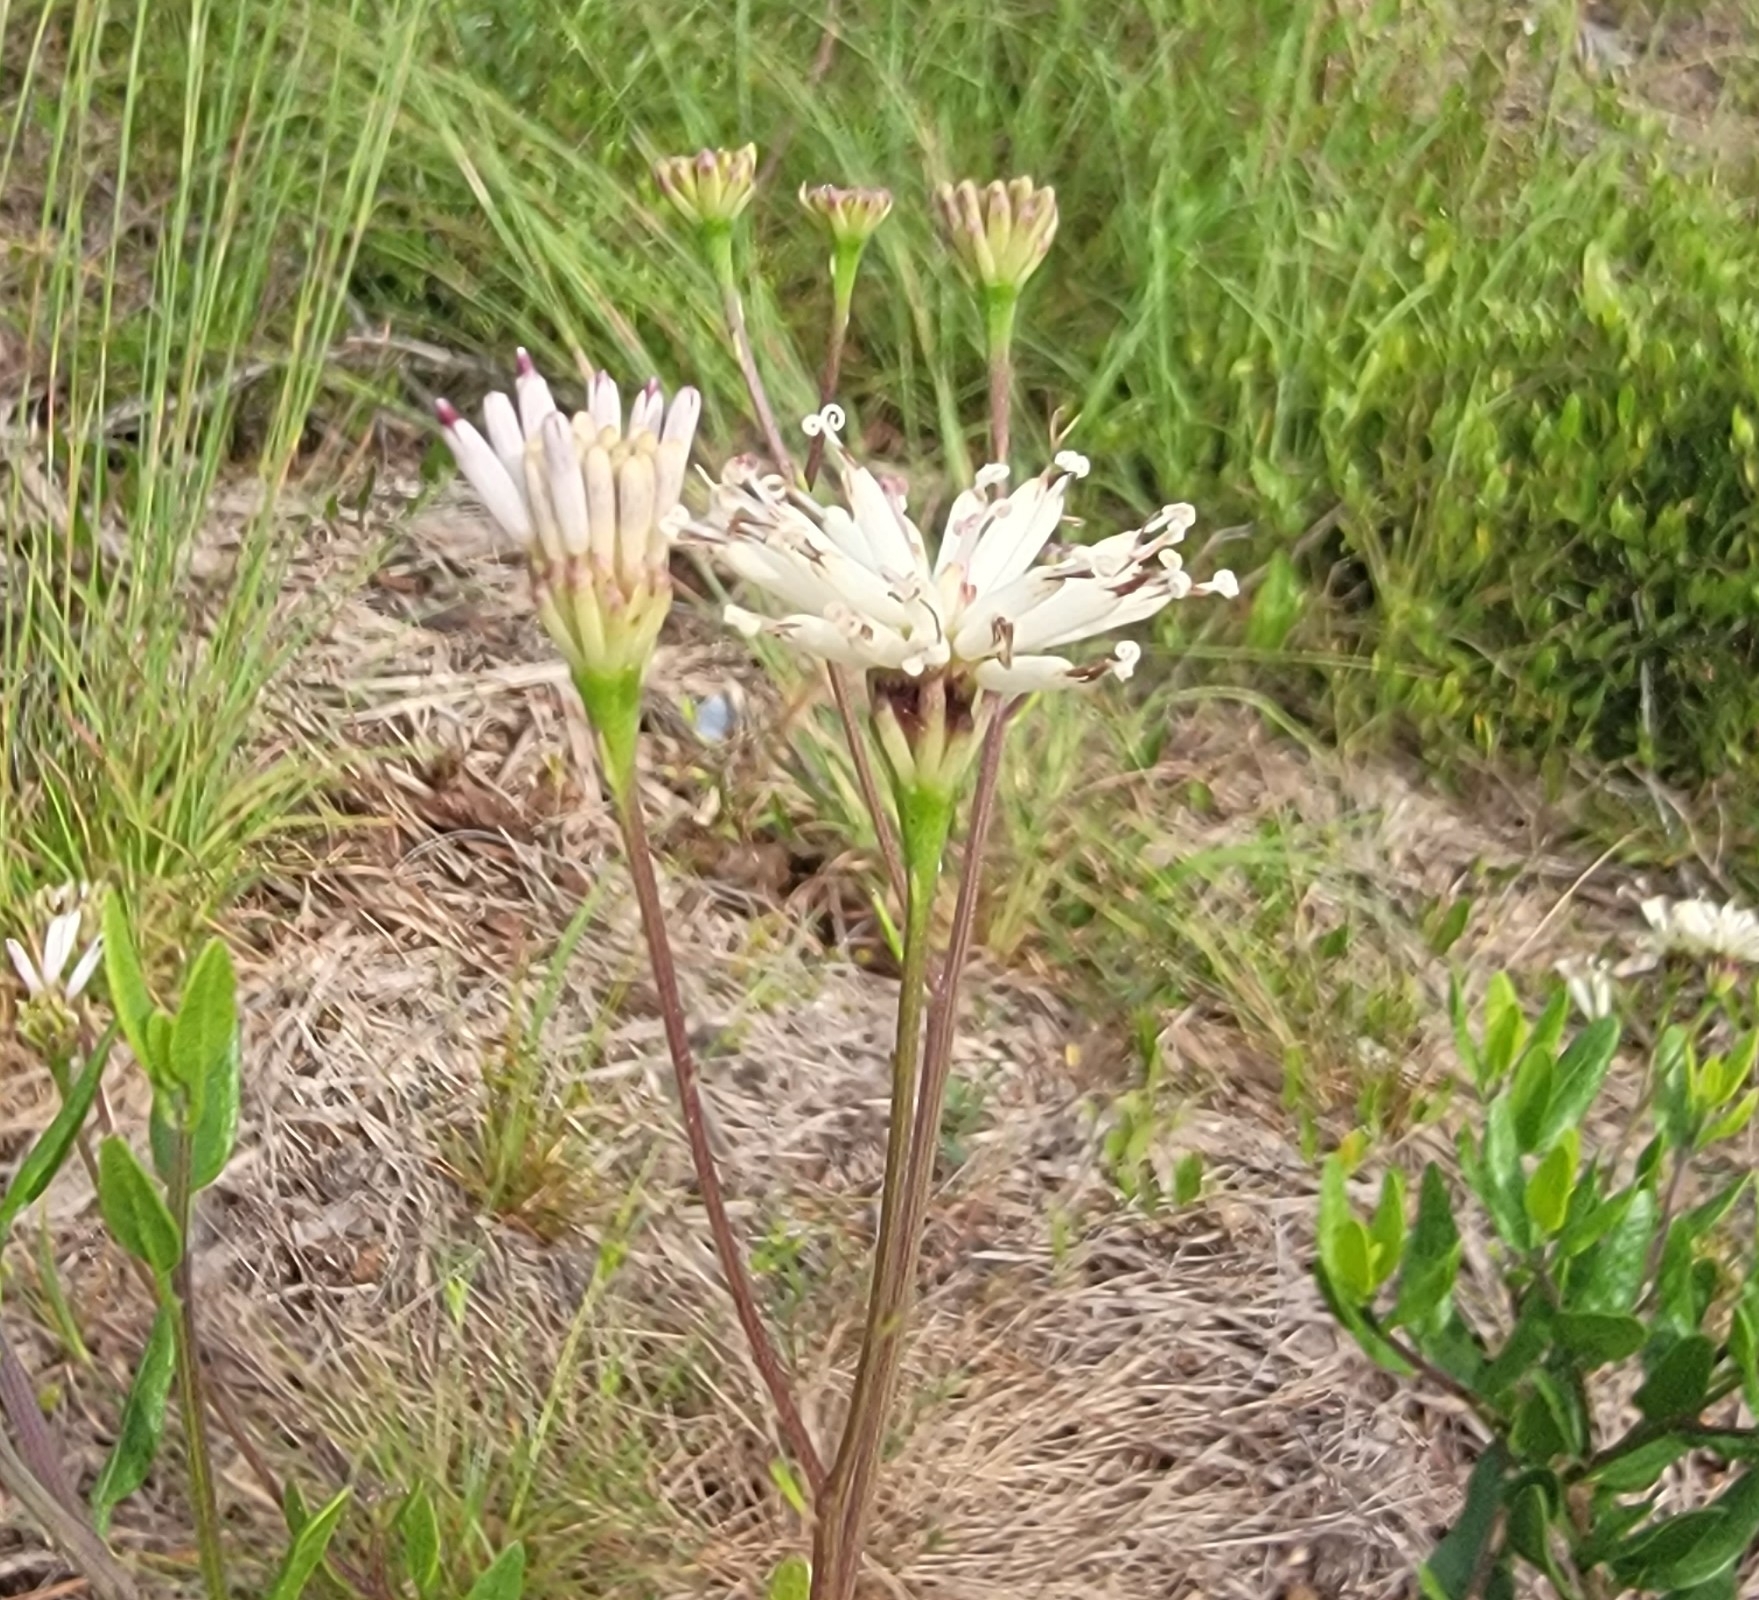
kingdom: Plantae
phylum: Tracheophyta
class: Magnoliopsida
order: Asterales
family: Asteraceae
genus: Palafoxia
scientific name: Palafoxia feayi
